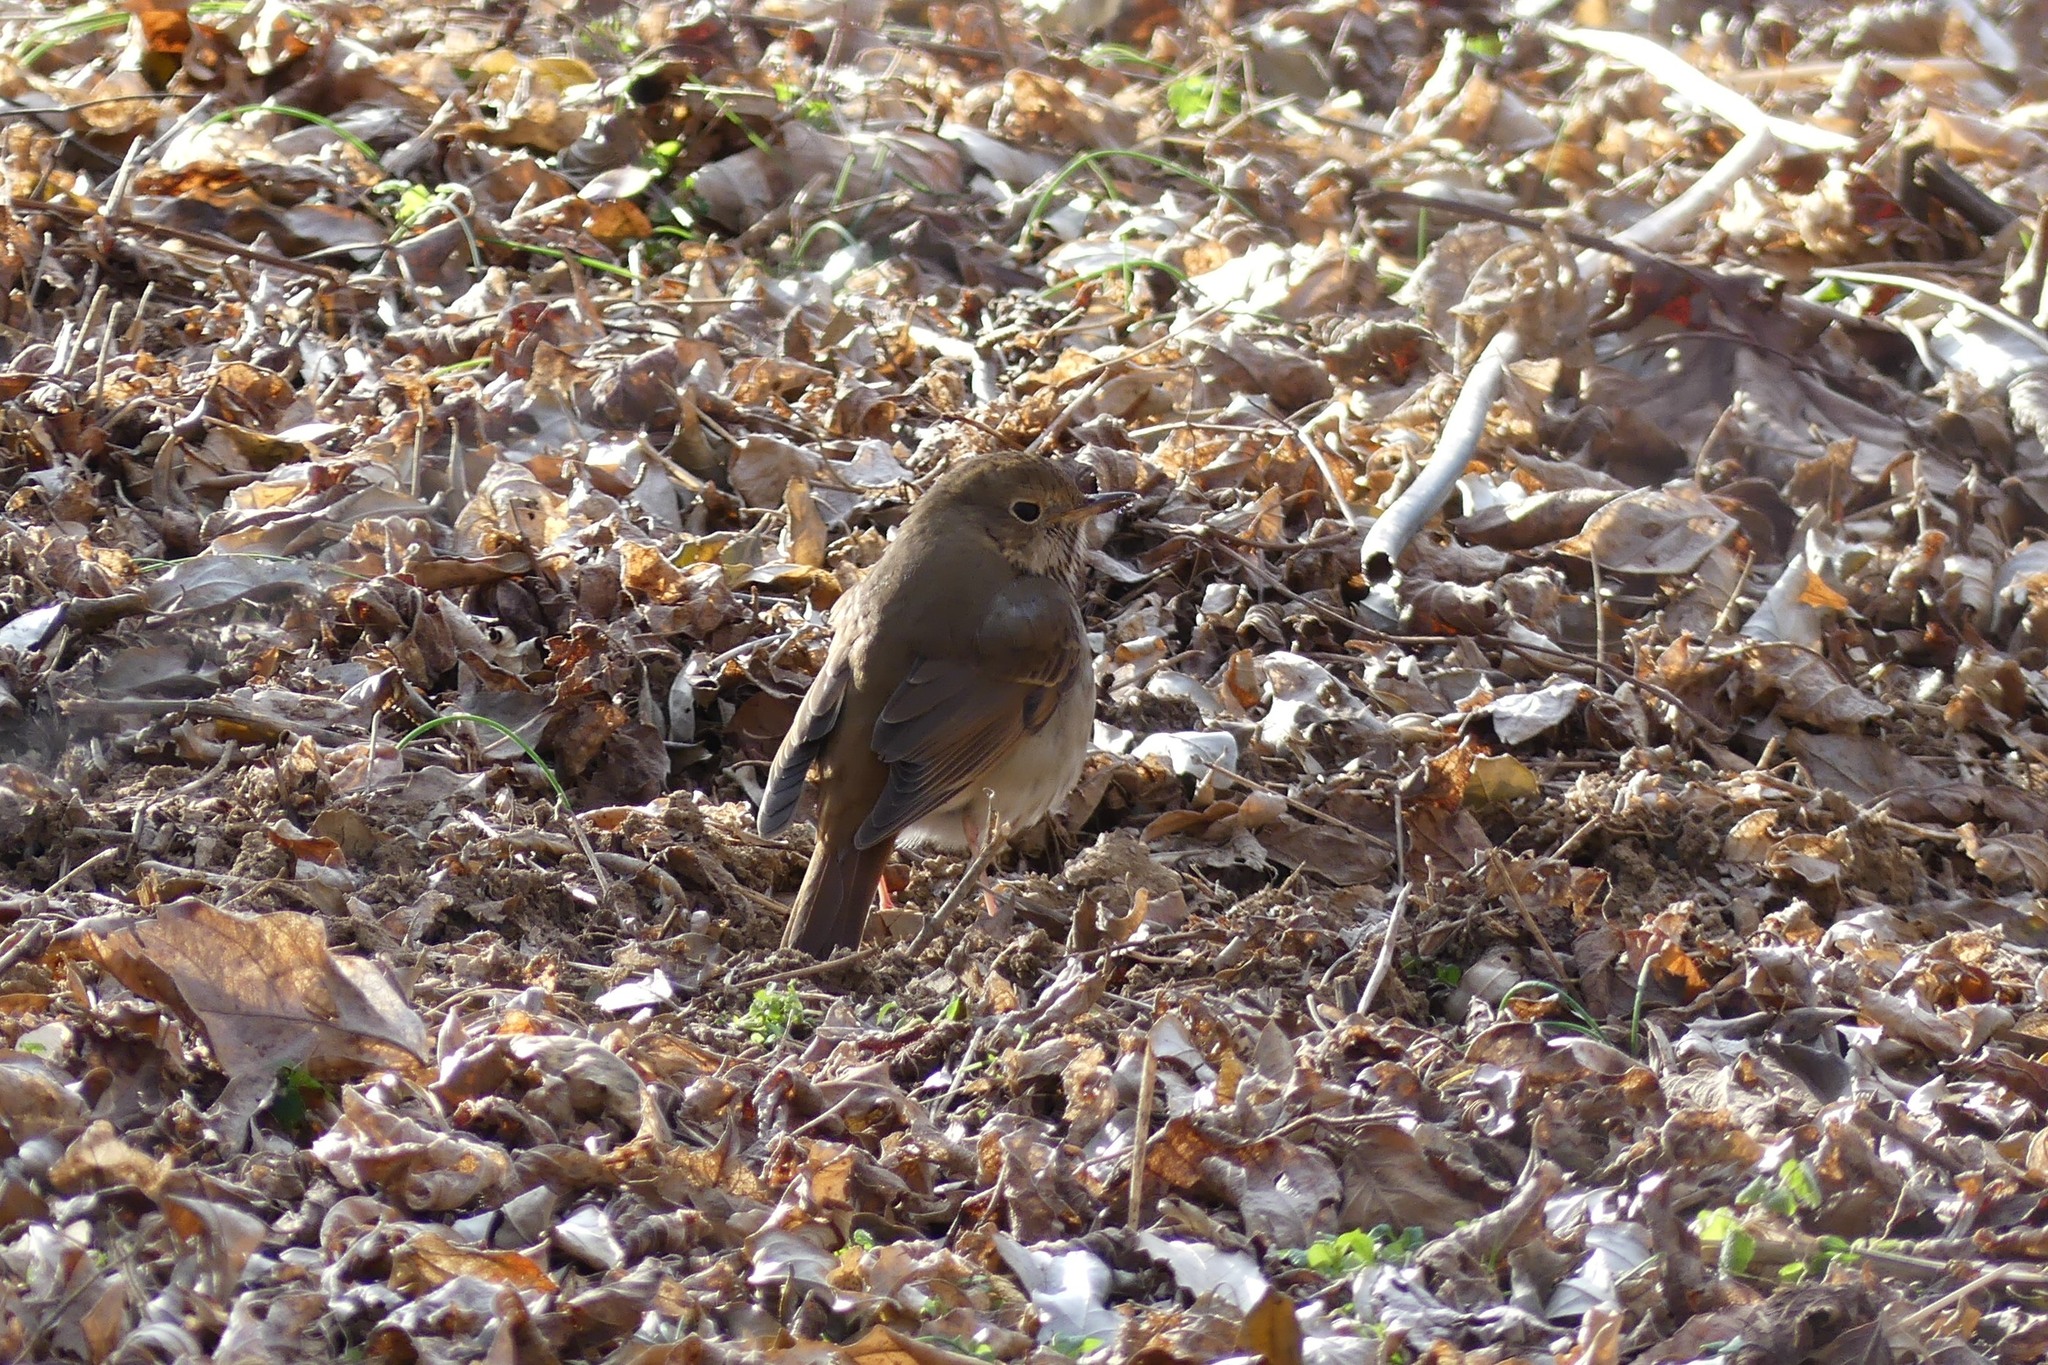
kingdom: Animalia
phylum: Chordata
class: Aves
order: Passeriformes
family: Turdidae
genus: Catharus
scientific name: Catharus guttatus
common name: Hermit thrush
